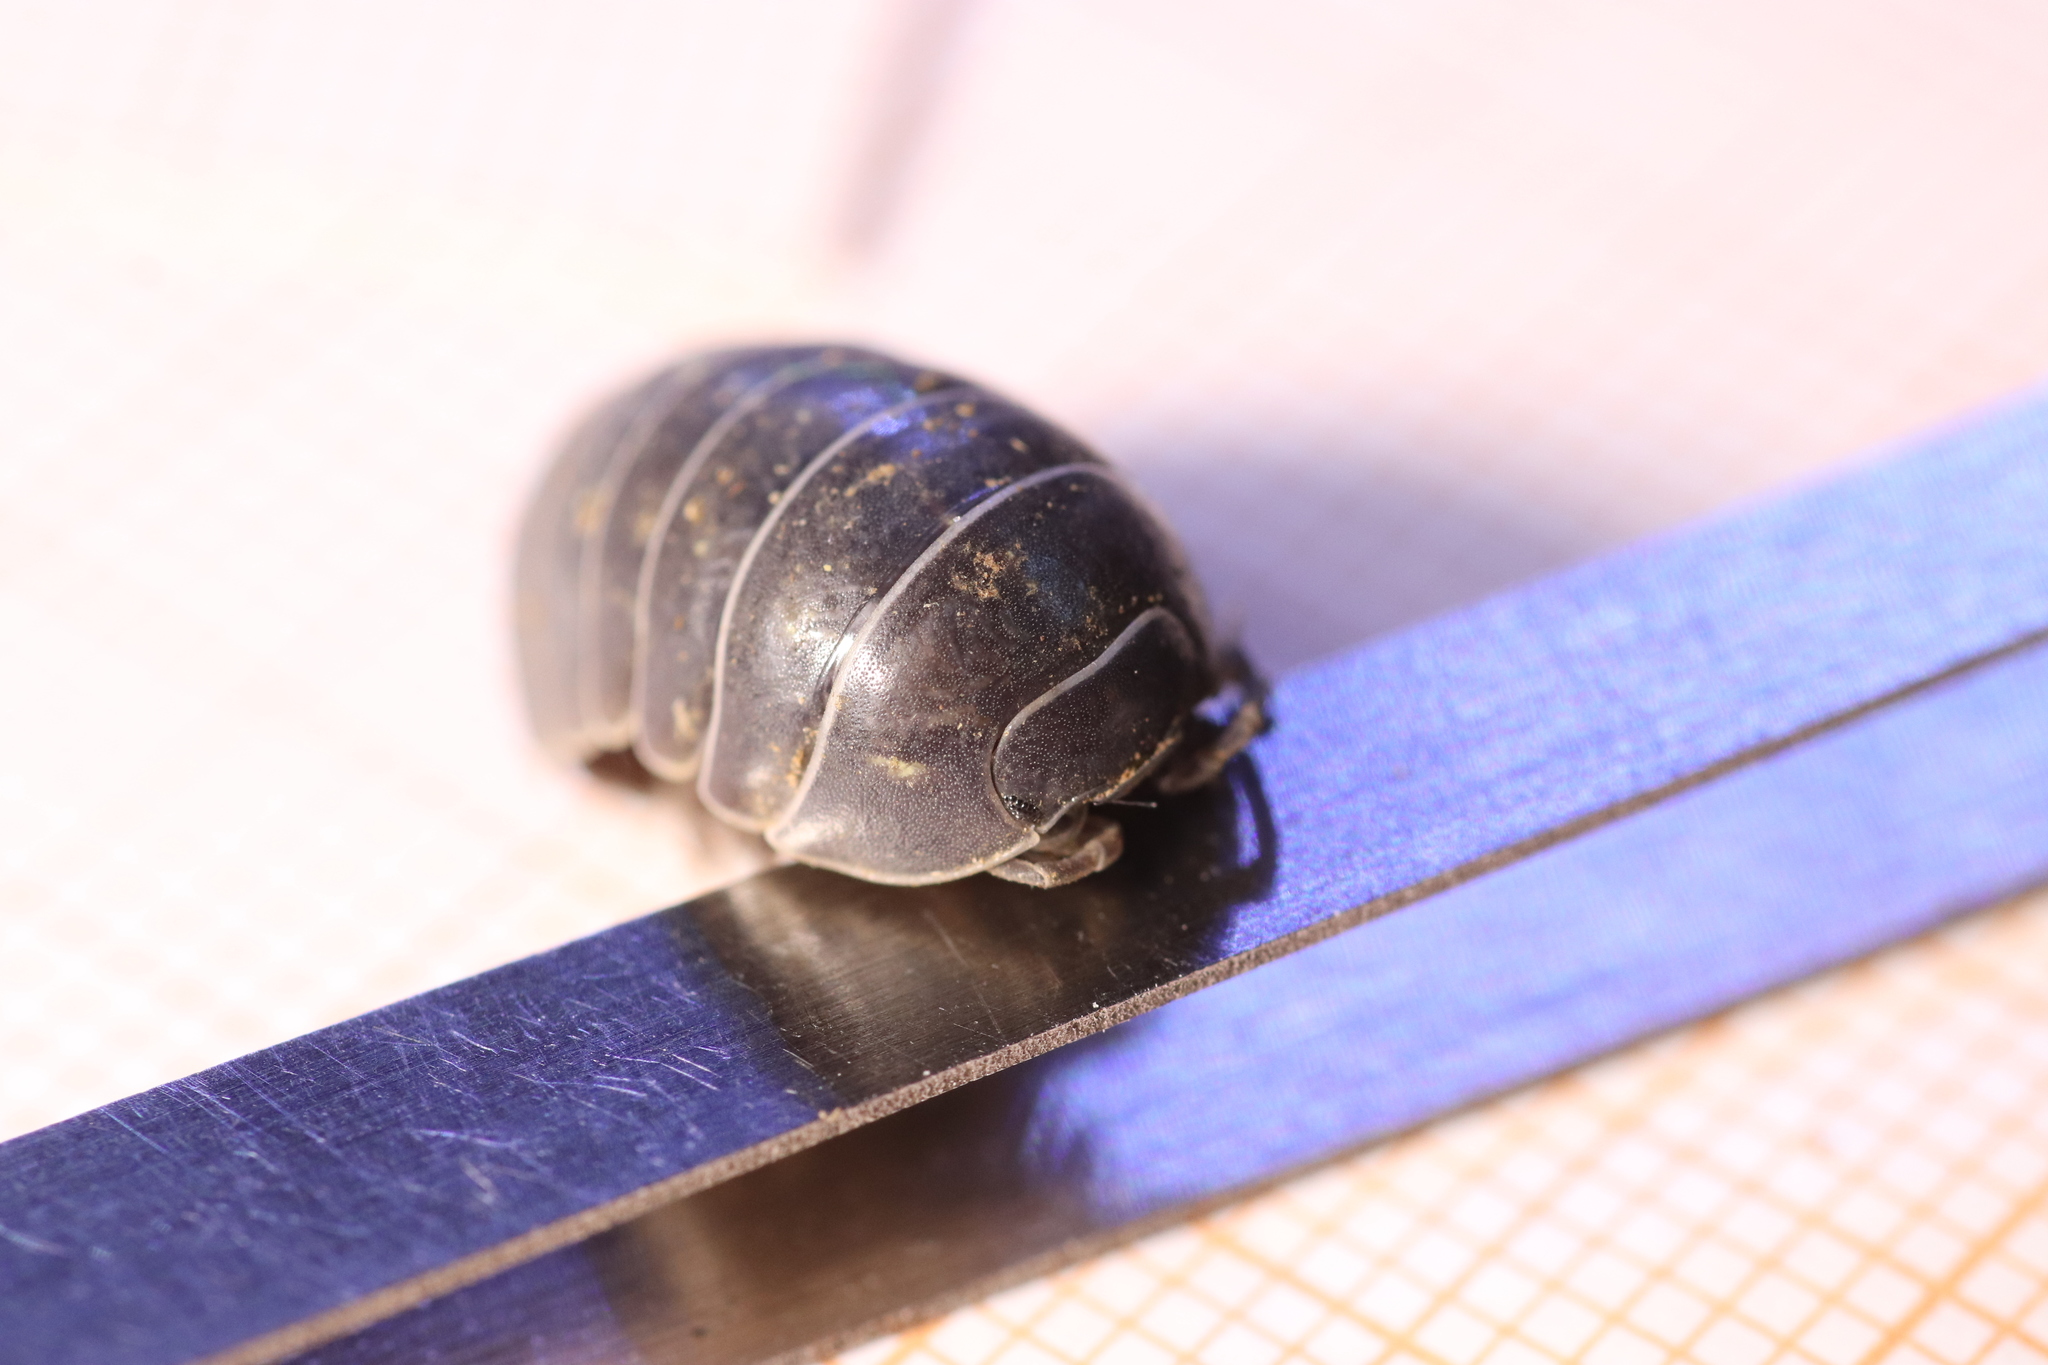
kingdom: Animalia
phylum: Arthropoda
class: Malacostraca
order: Isopoda
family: Armadillidiidae
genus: Armadillidium
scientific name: Armadillidium vulgare
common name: Common pill woodlouse
